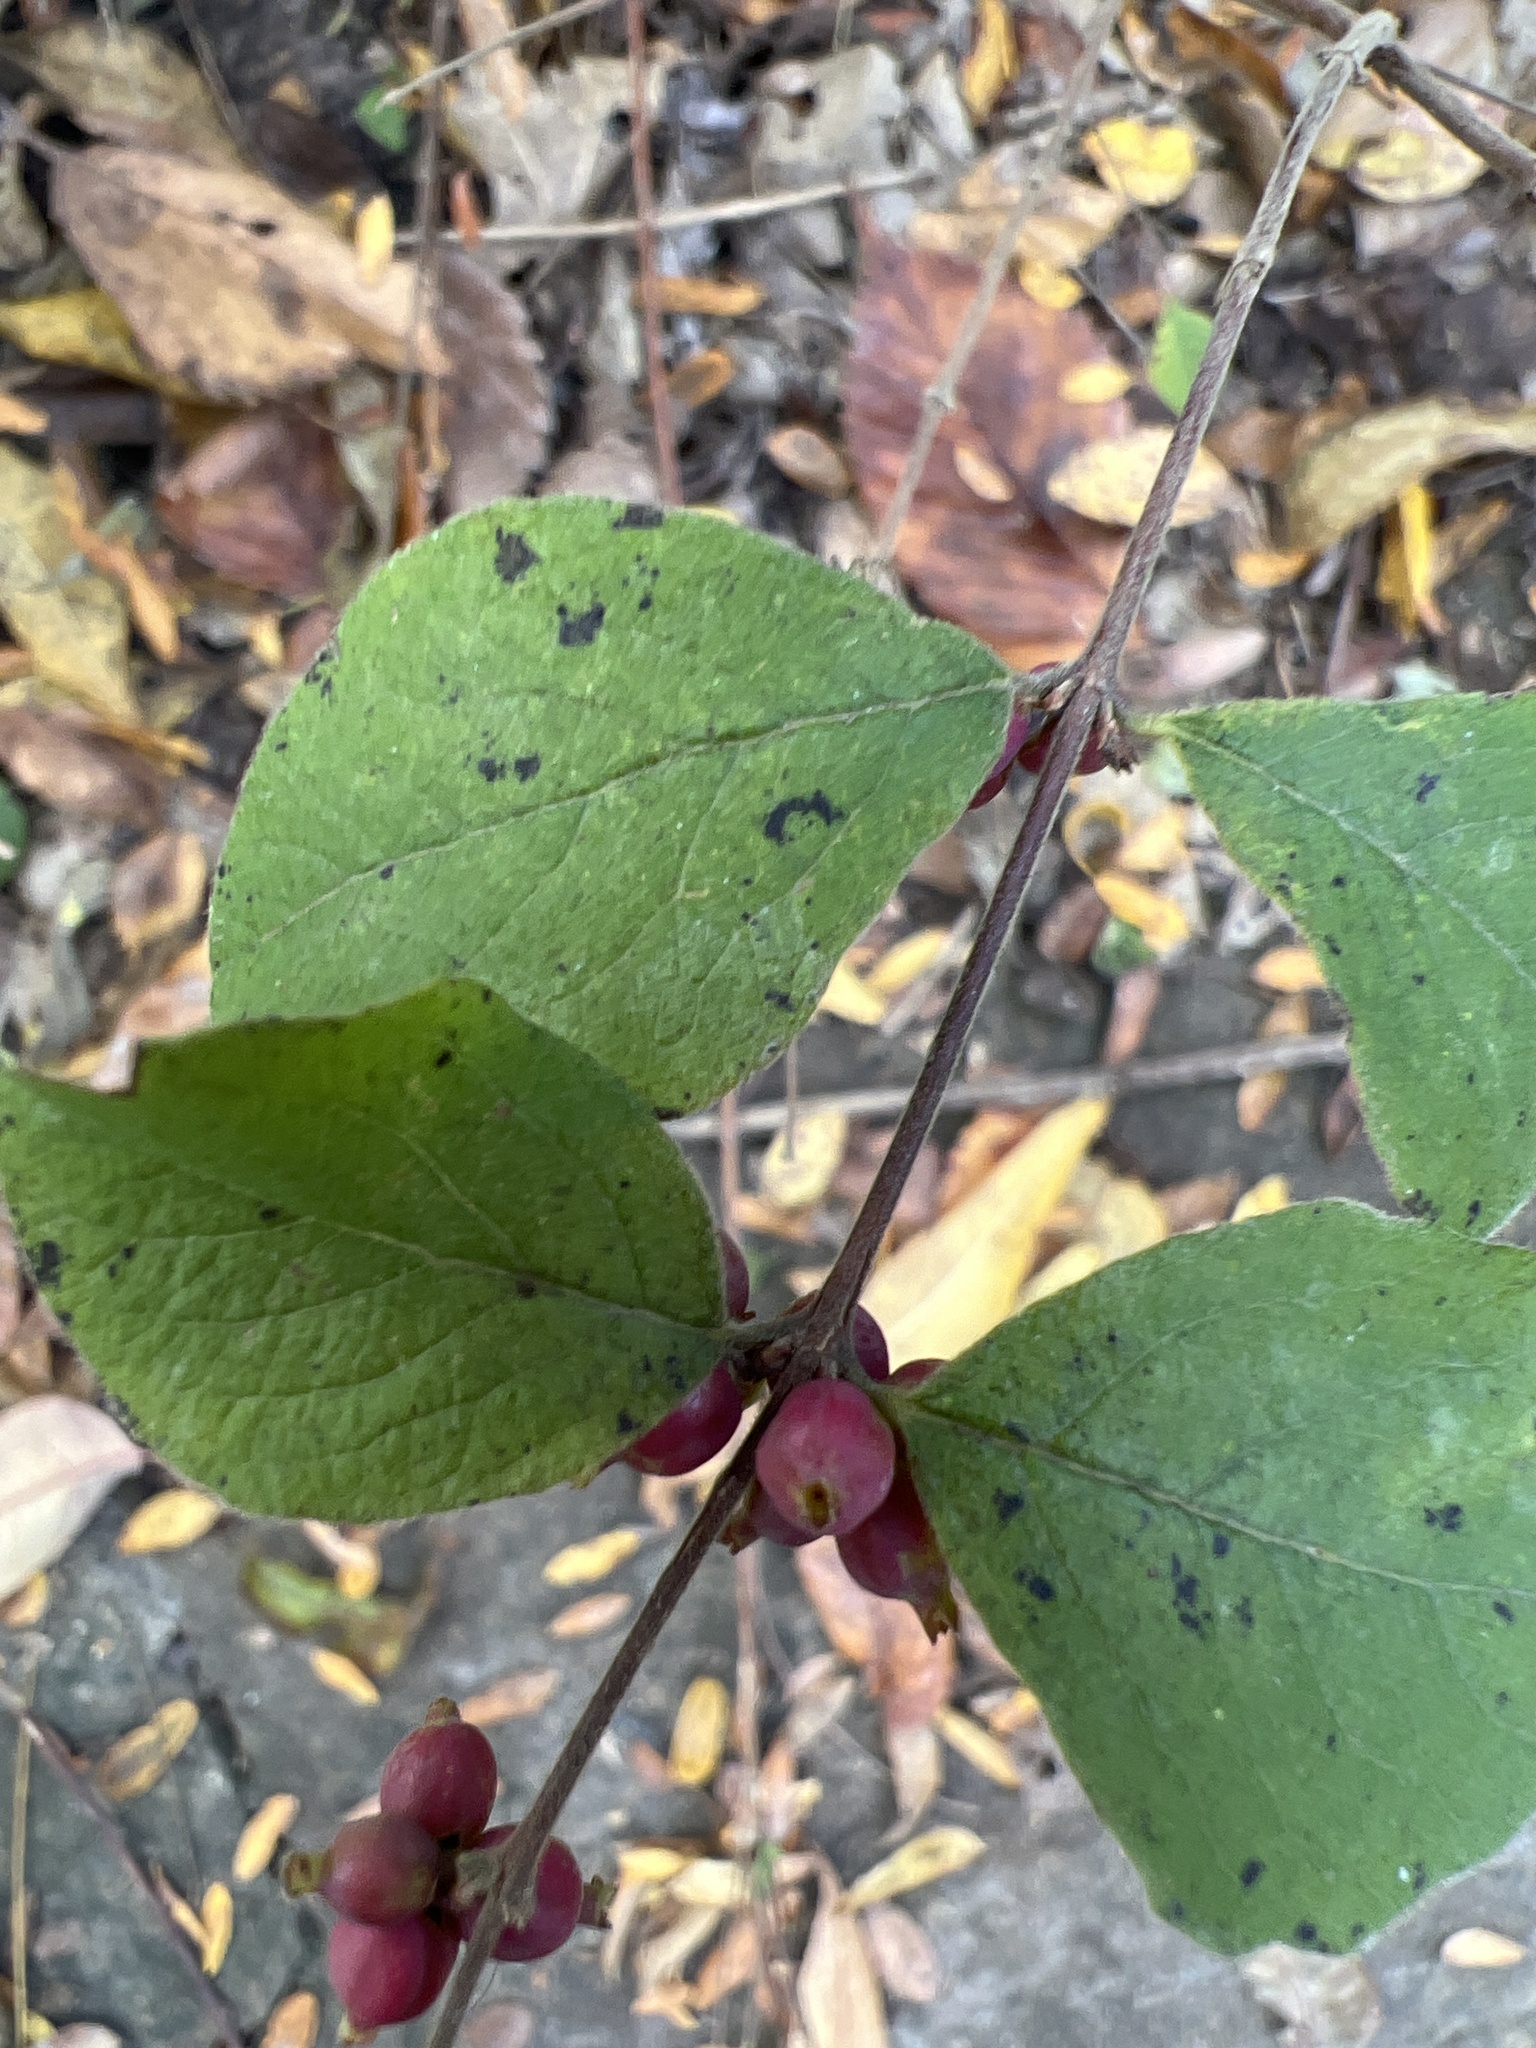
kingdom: Plantae
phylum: Tracheophyta
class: Magnoliopsida
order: Dipsacales
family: Caprifoliaceae
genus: Symphoricarpos
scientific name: Symphoricarpos orbiculatus
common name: Coralberry
